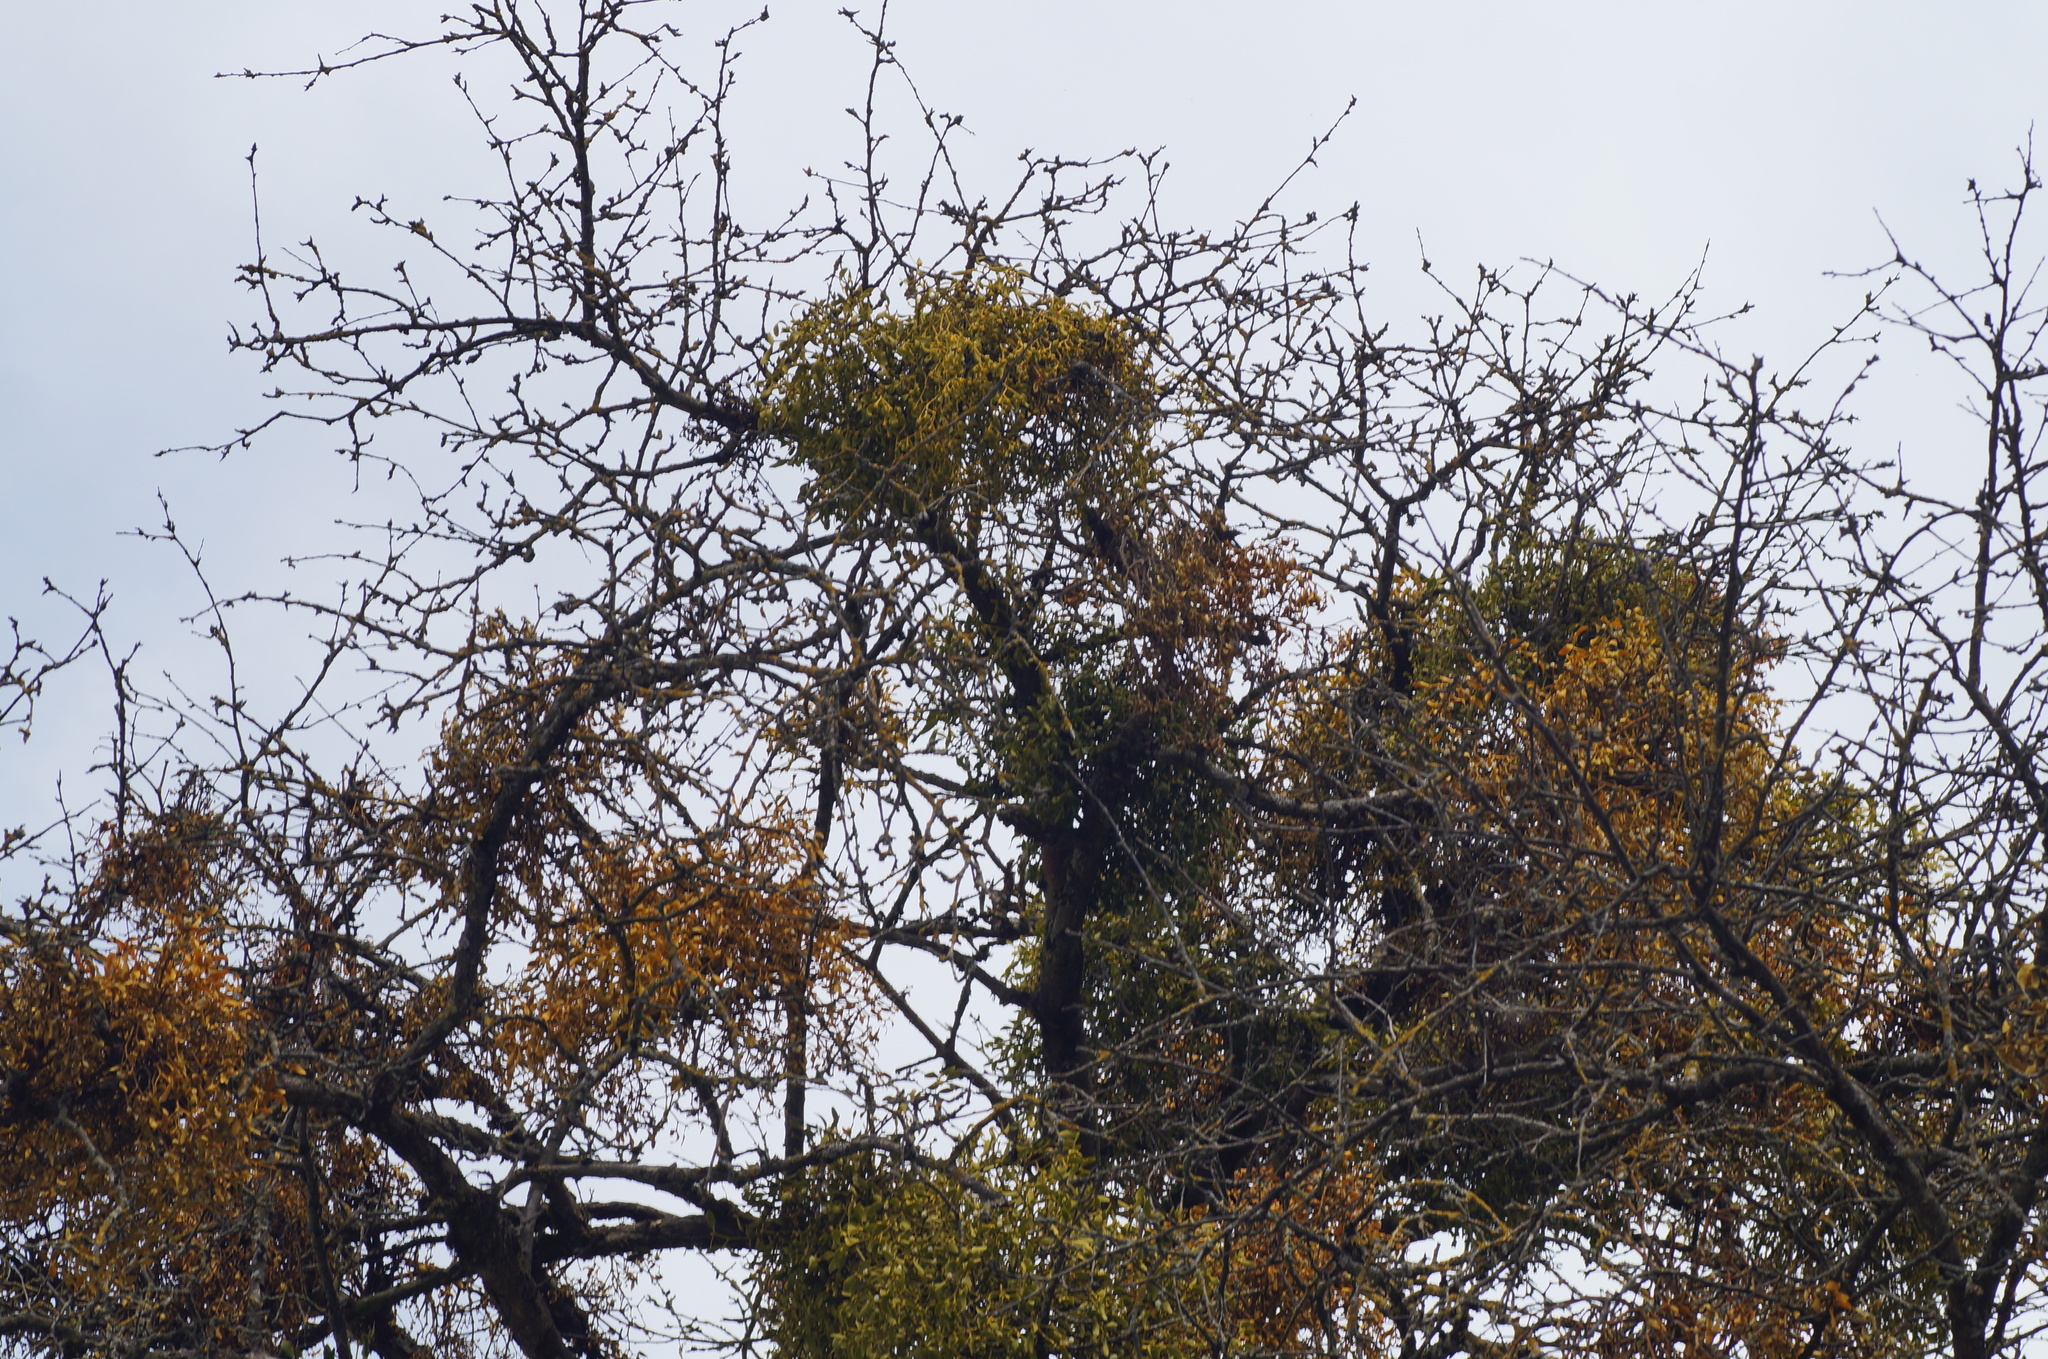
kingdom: Plantae
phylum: Tracheophyta
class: Magnoliopsida
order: Santalales
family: Viscaceae
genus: Viscum
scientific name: Viscum album
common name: Mistletoe
